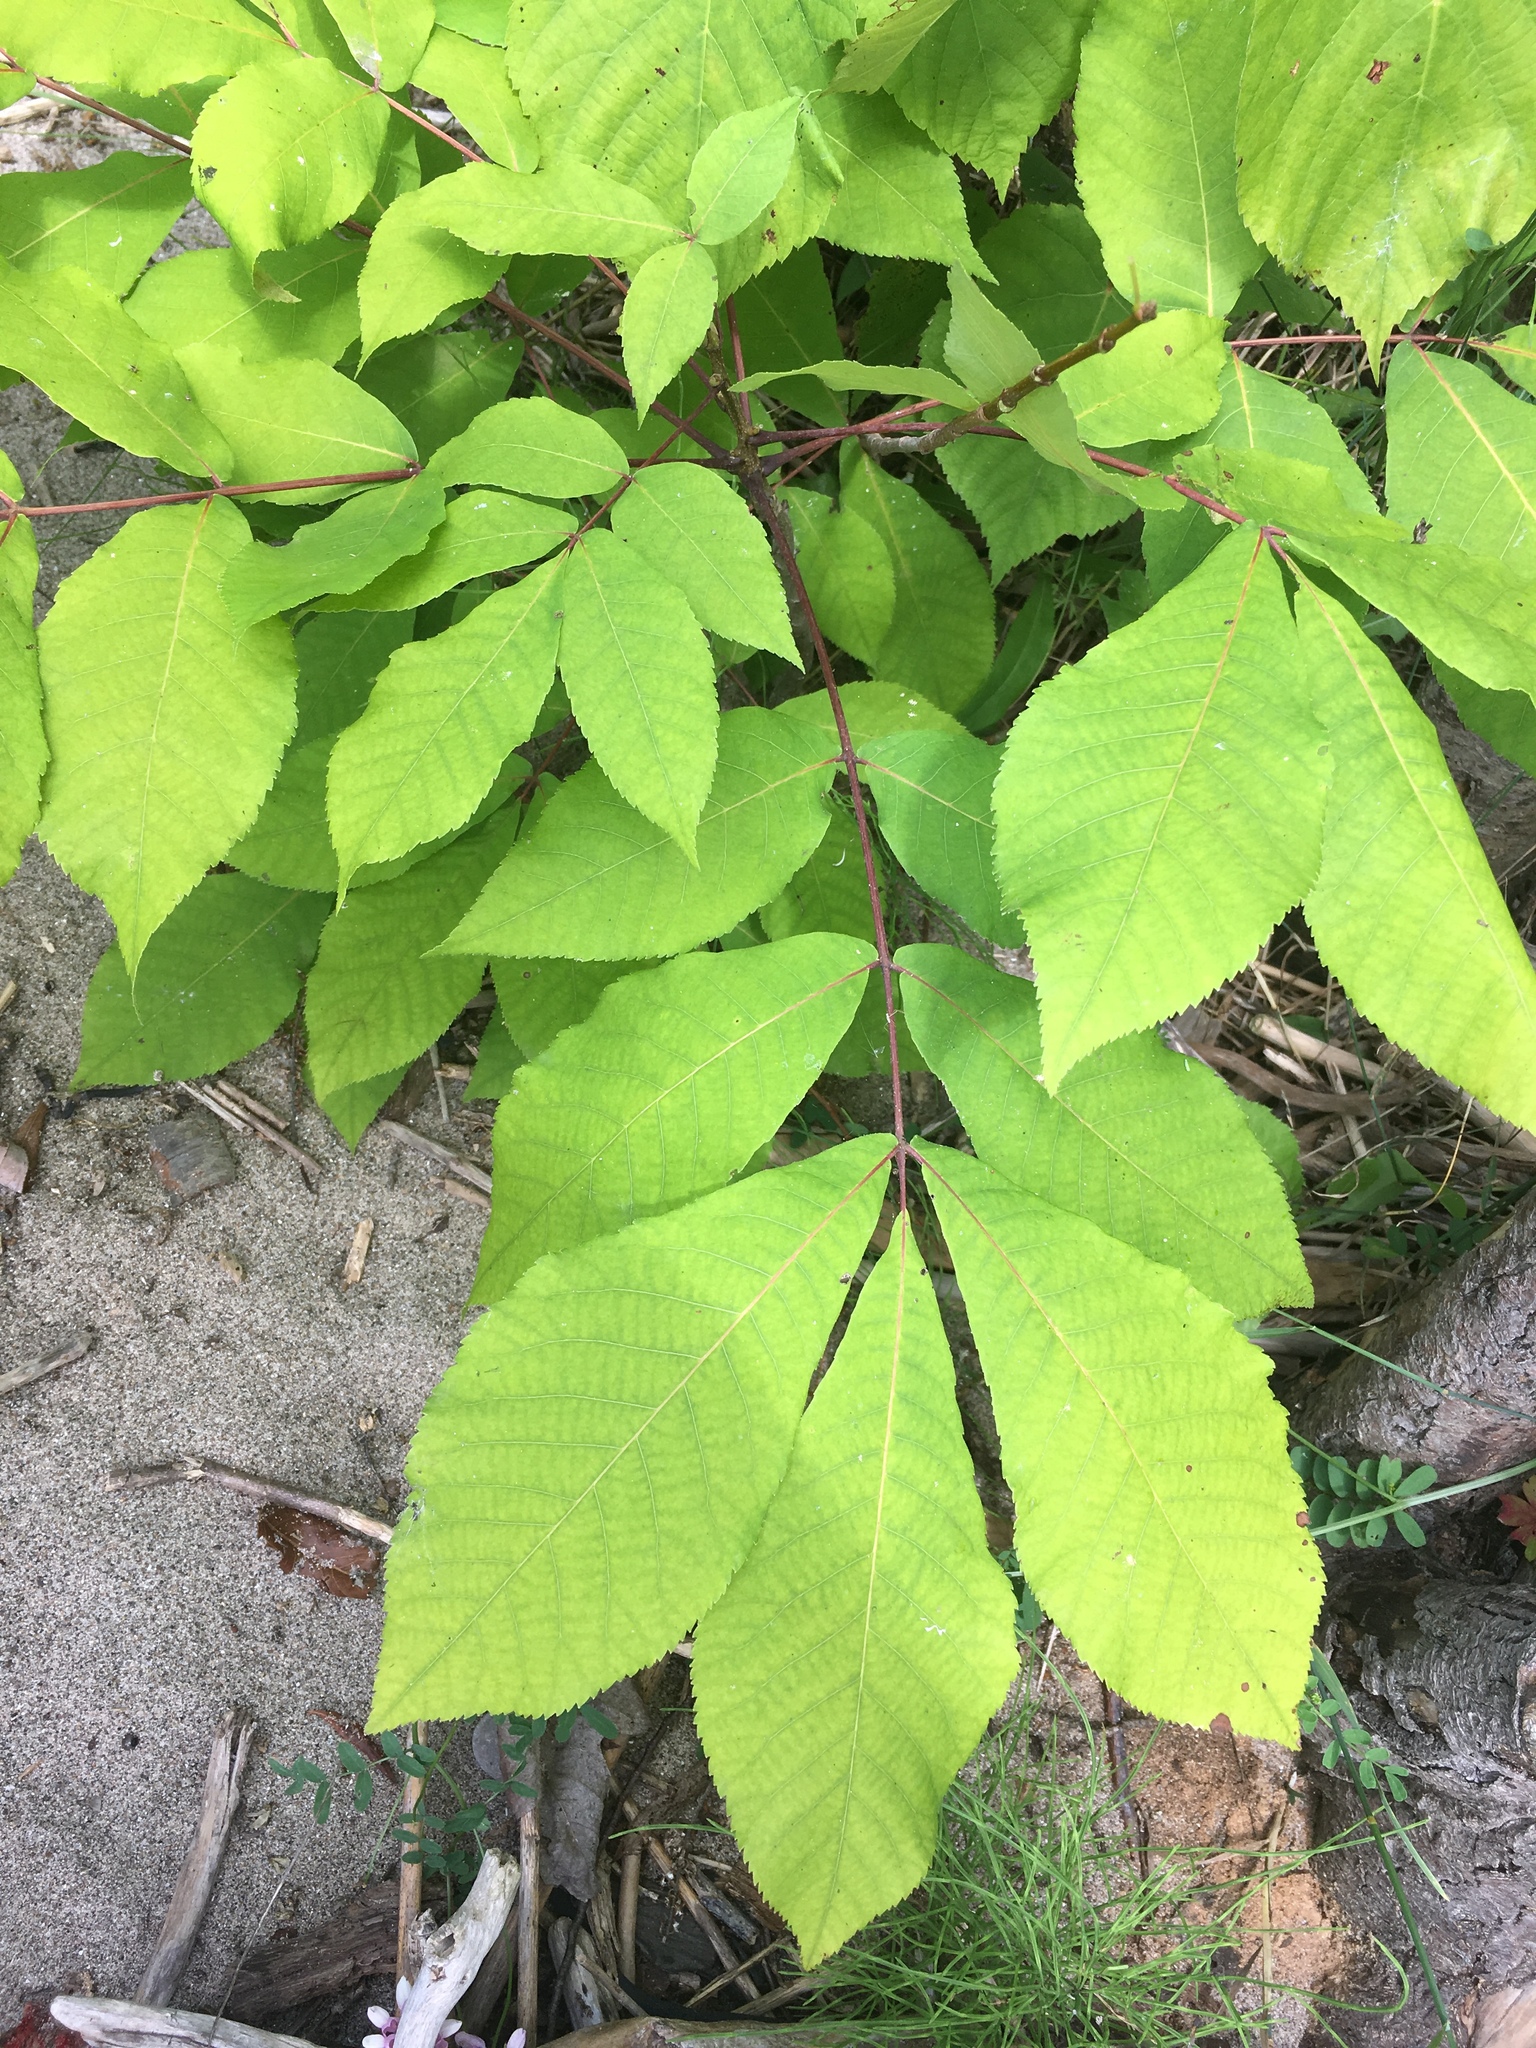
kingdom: Plantae
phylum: Tracheophyta
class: Magnoliopsida
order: Fagales
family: Juglandaceae
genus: Carya
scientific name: Carya ovata
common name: Shagbark hickory
